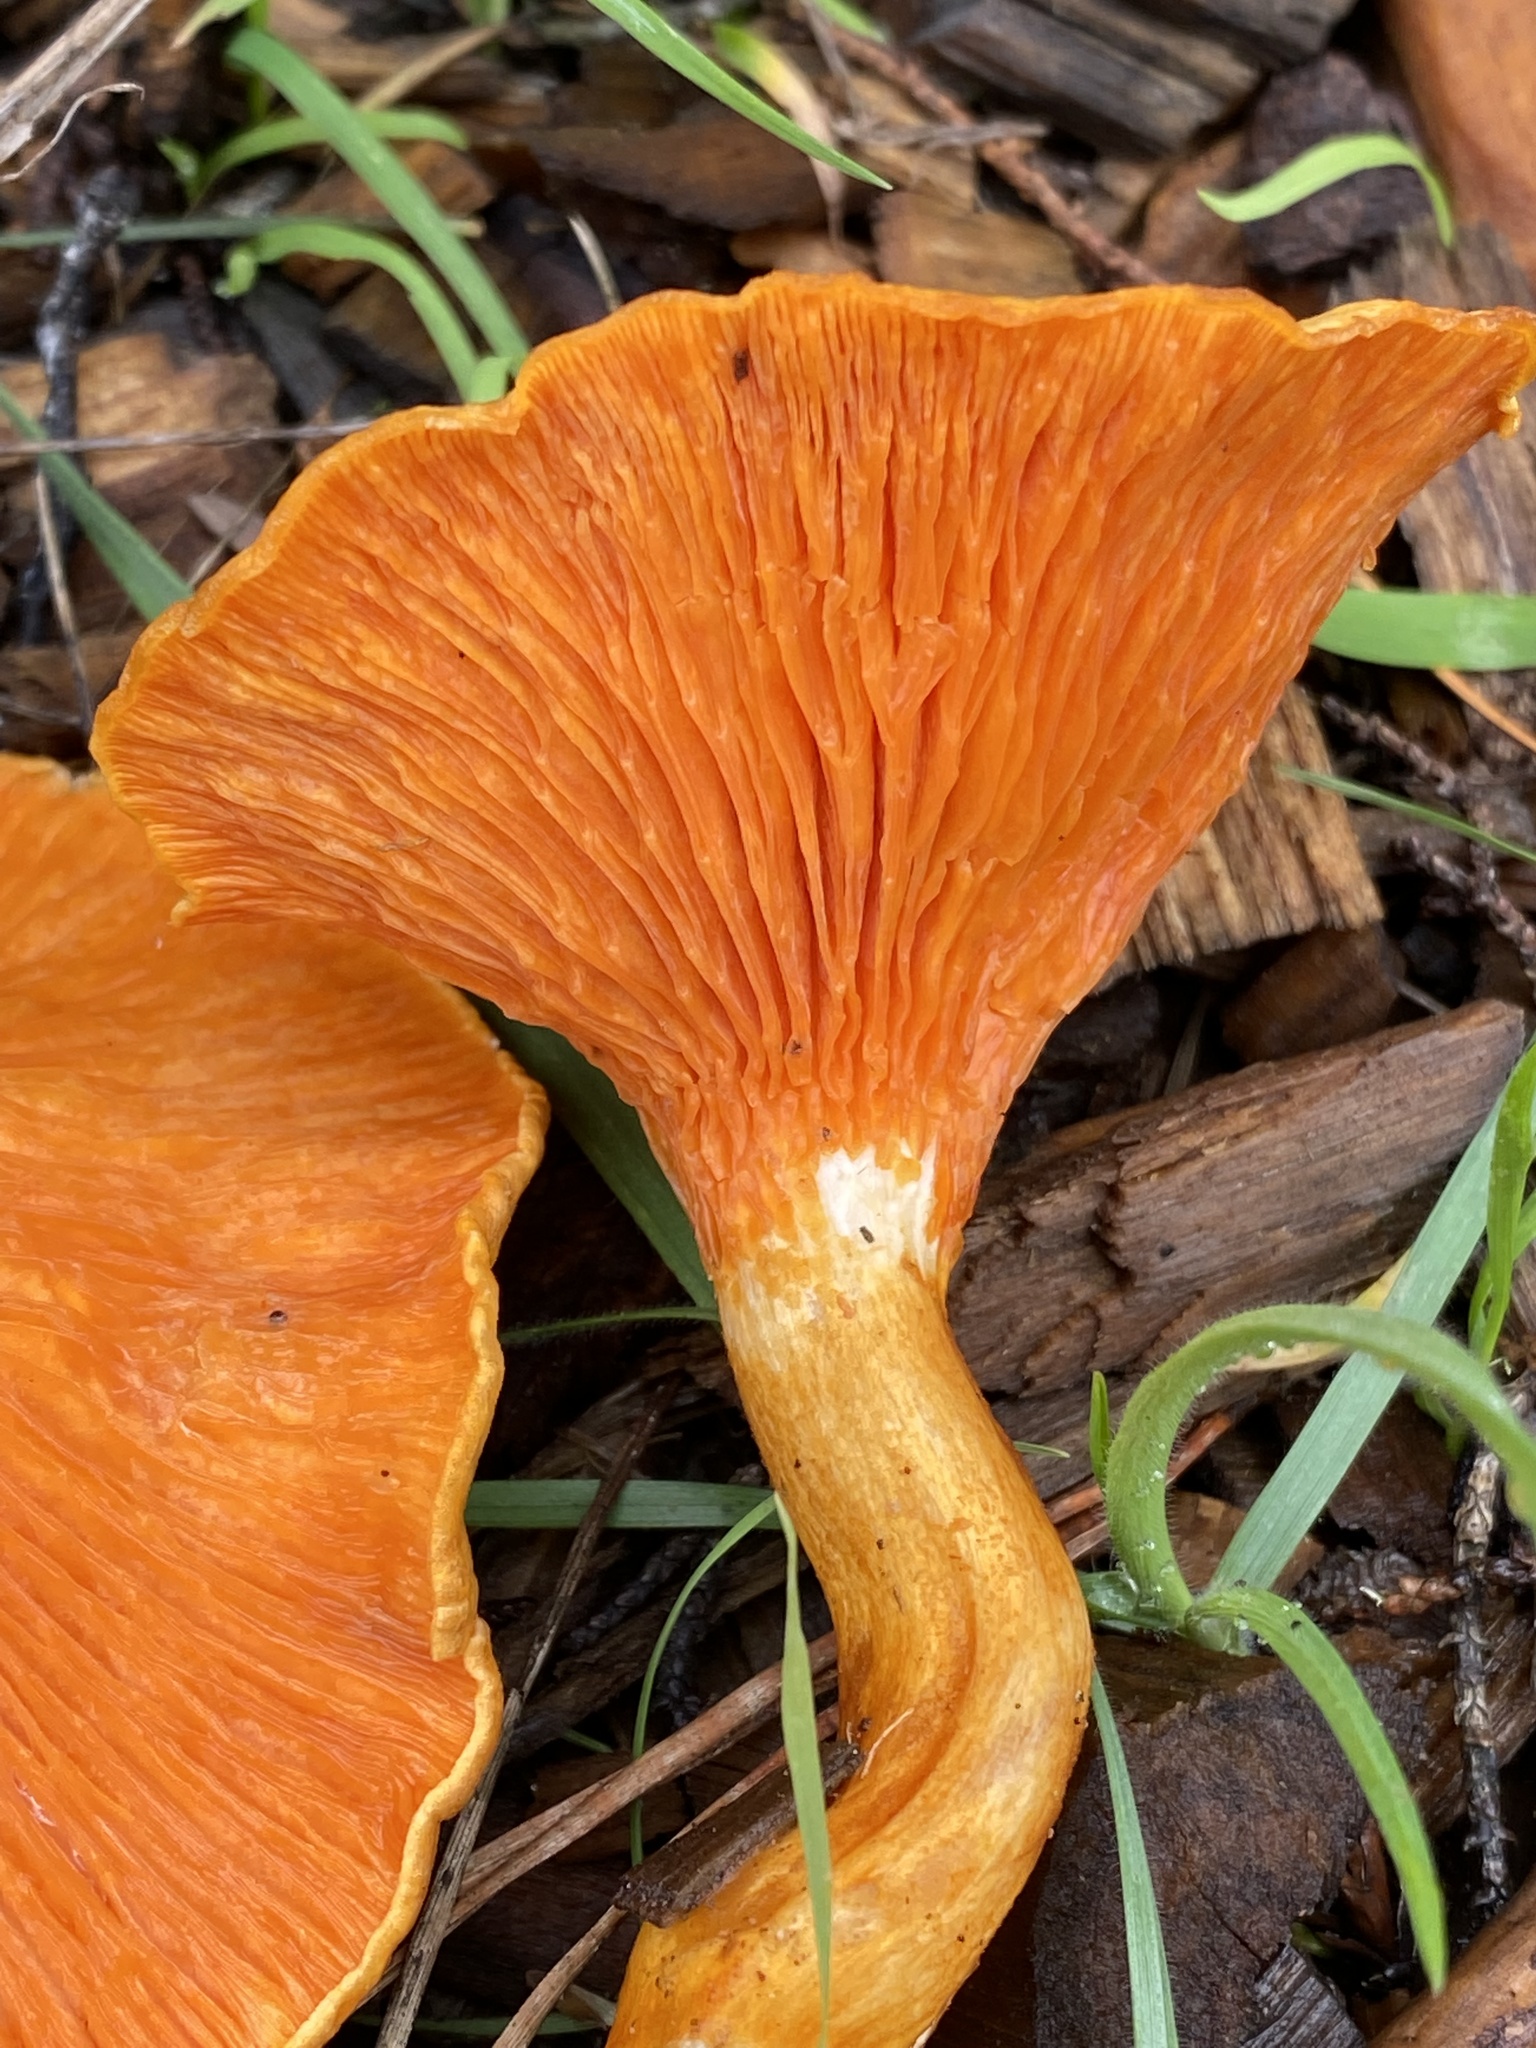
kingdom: Fungi
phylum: Basidiomycota
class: Agaricomycetes
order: Boletales
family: Hygrophoropsidaceae
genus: Hygrophoropsis
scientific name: Hygrophoropsis aurantiaca
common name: False chanterelle
